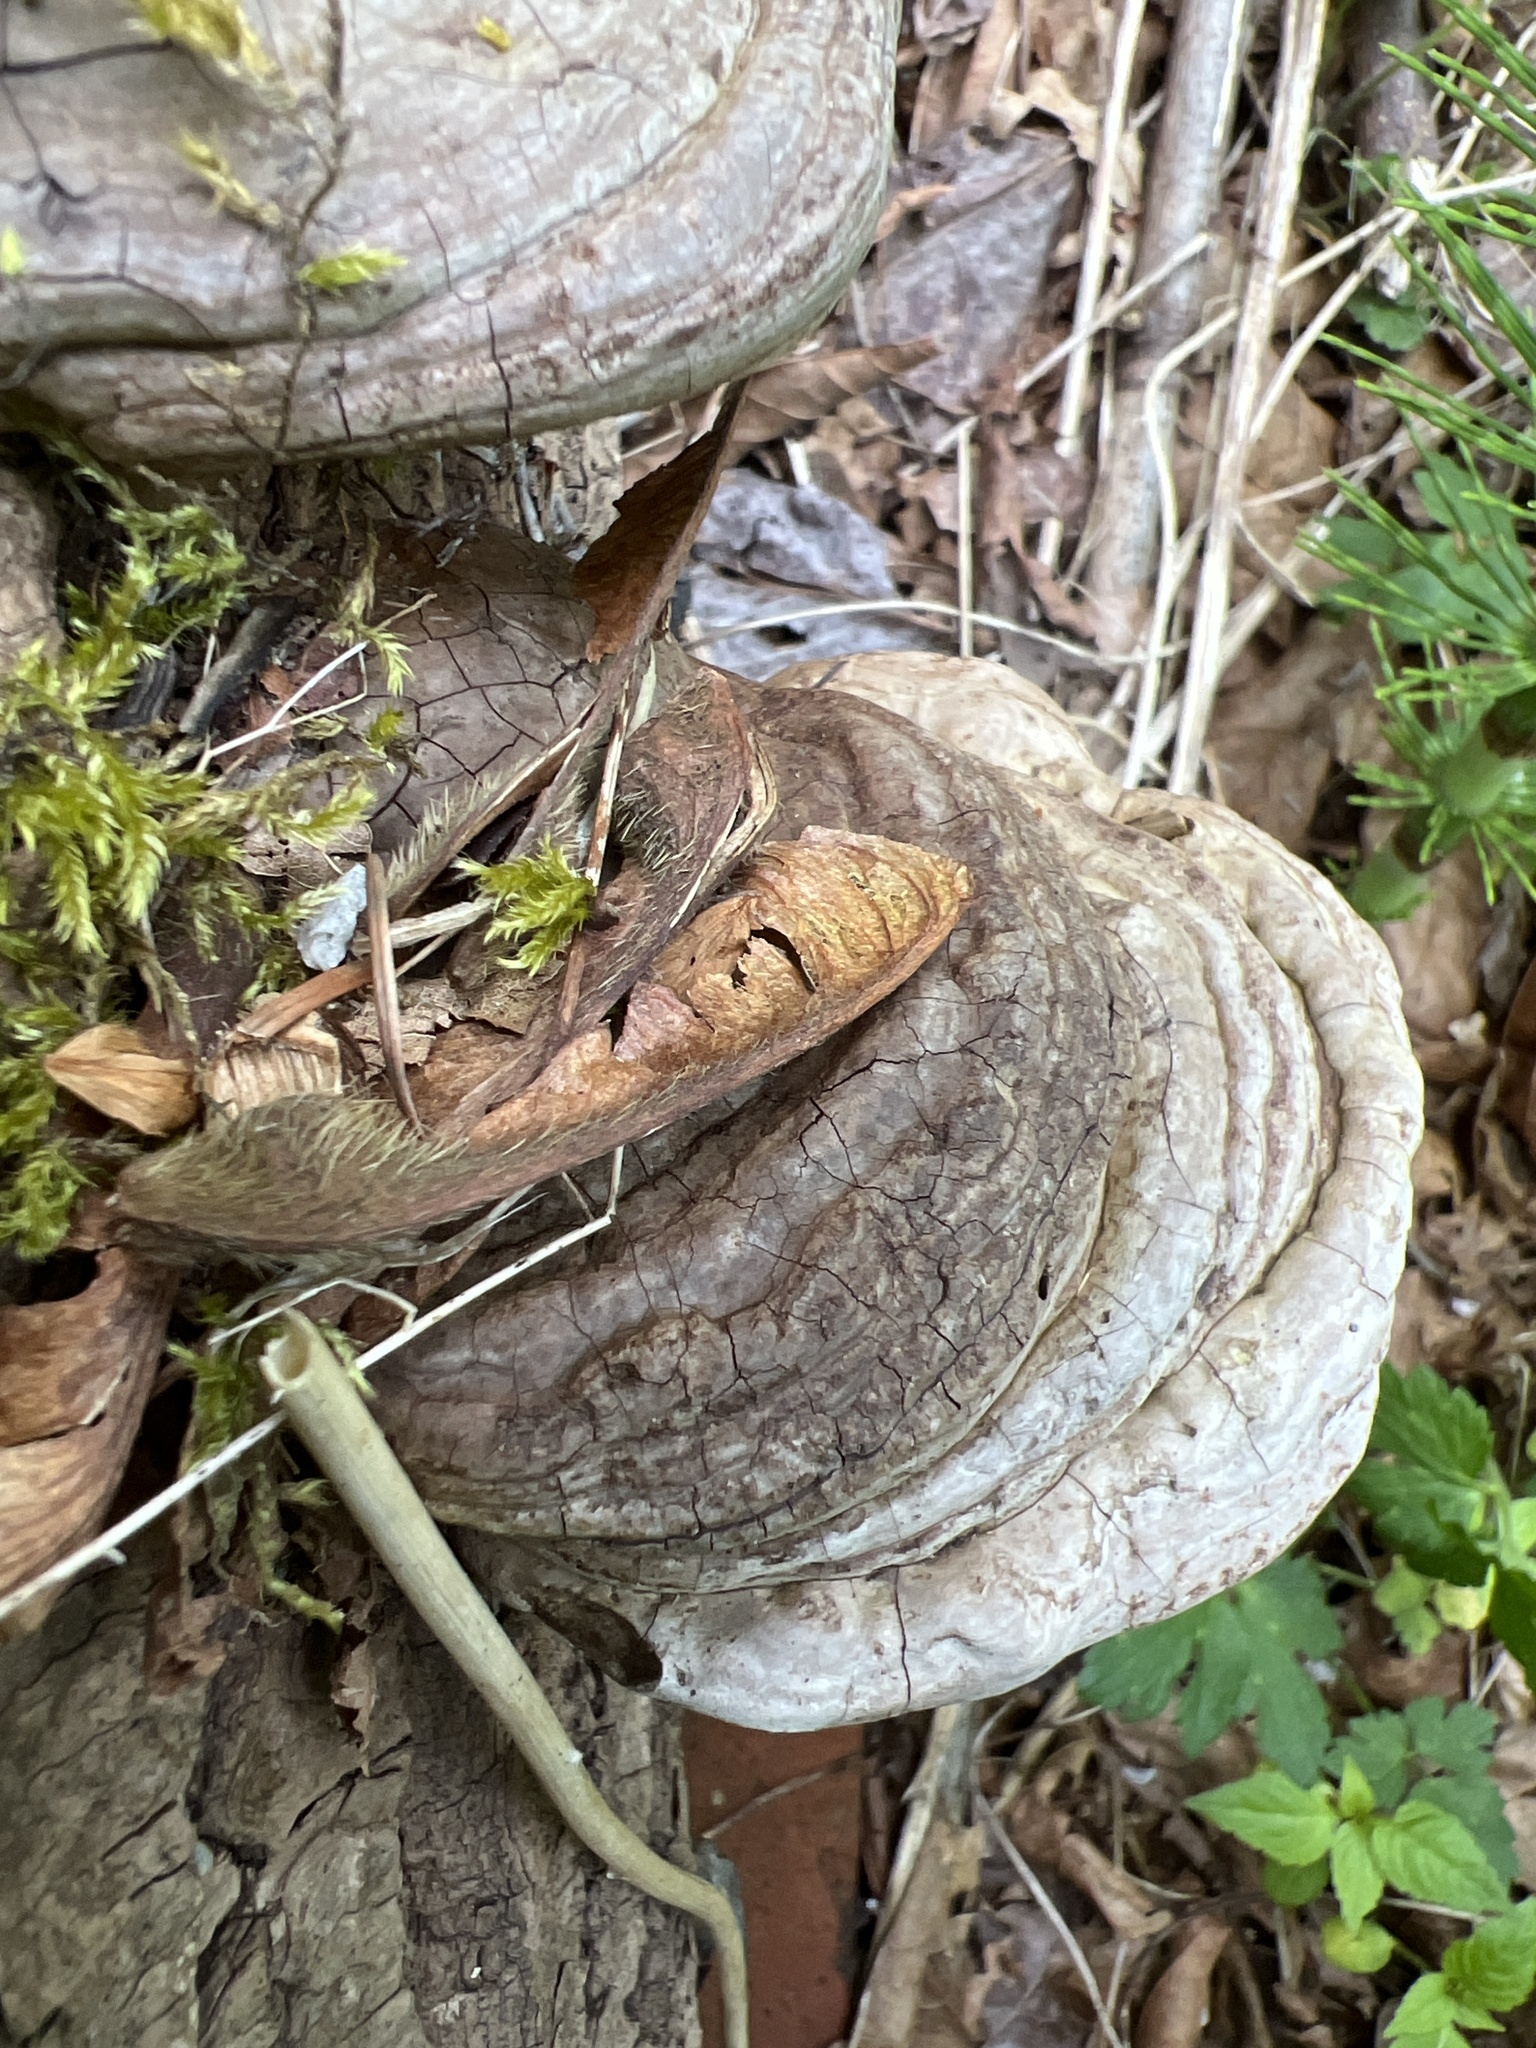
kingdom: Fungi
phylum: Basidiomycota
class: Agaricomycetes
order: Polyporales
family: Polyporaceae
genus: Fomes
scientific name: Fomes fomentarius
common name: Hoof fungus
